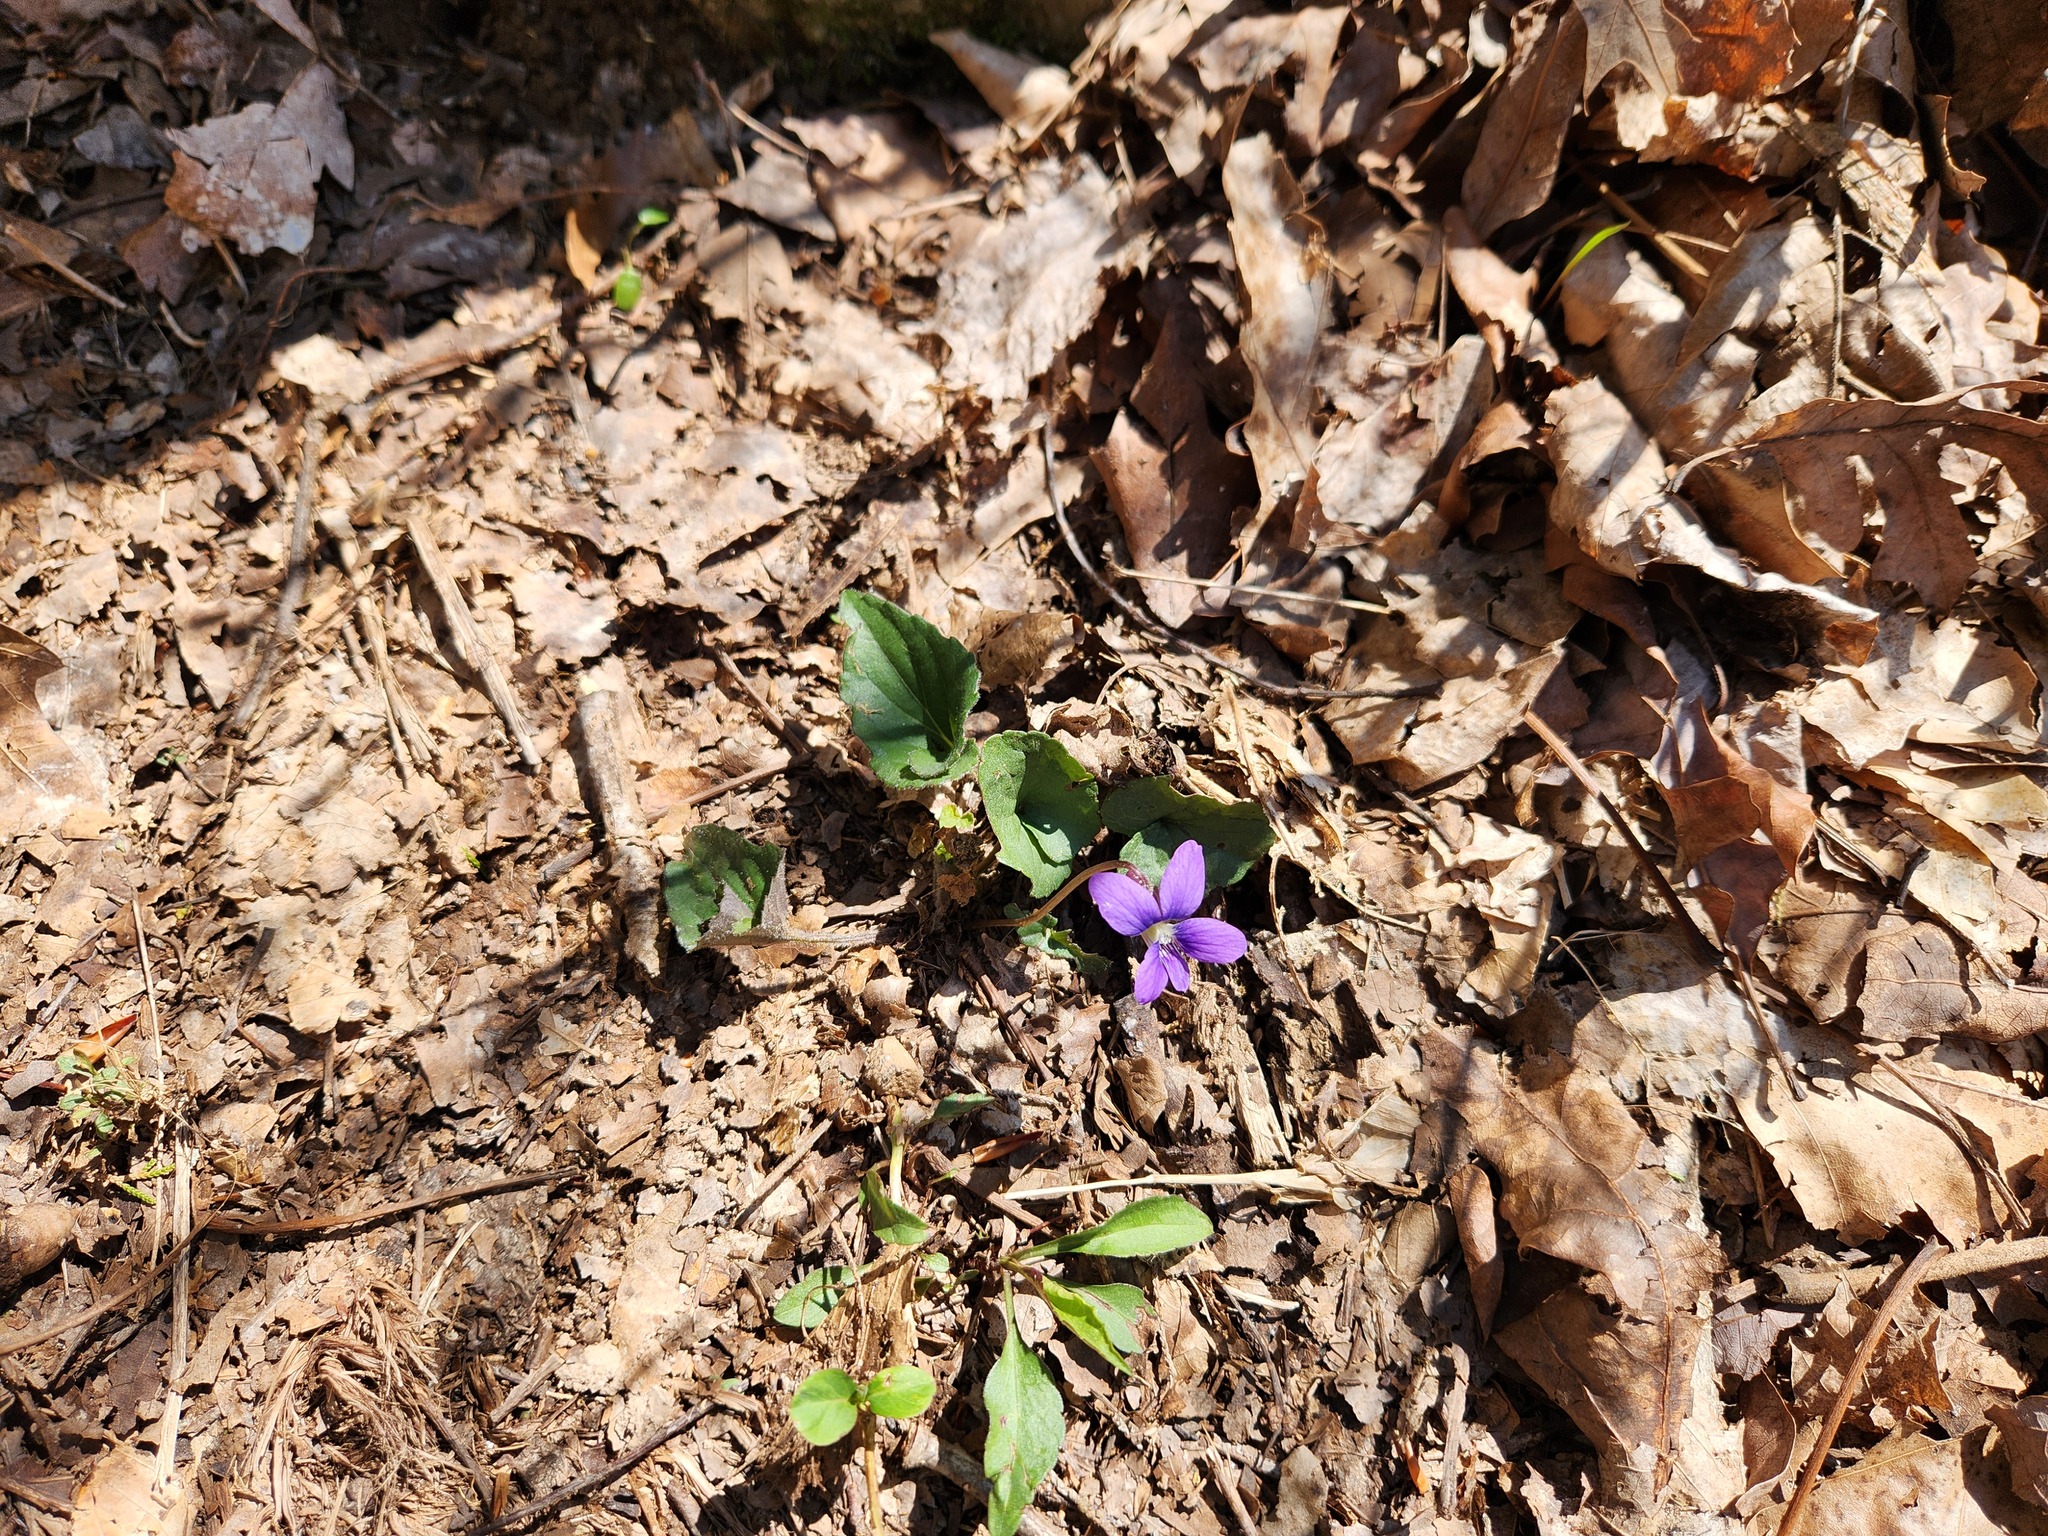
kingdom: Plantae
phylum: Tracheophyta
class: Magnoliopsida
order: Malpighiales
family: Violaceae
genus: Viola
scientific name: Viola palmata
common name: Early blue violet
